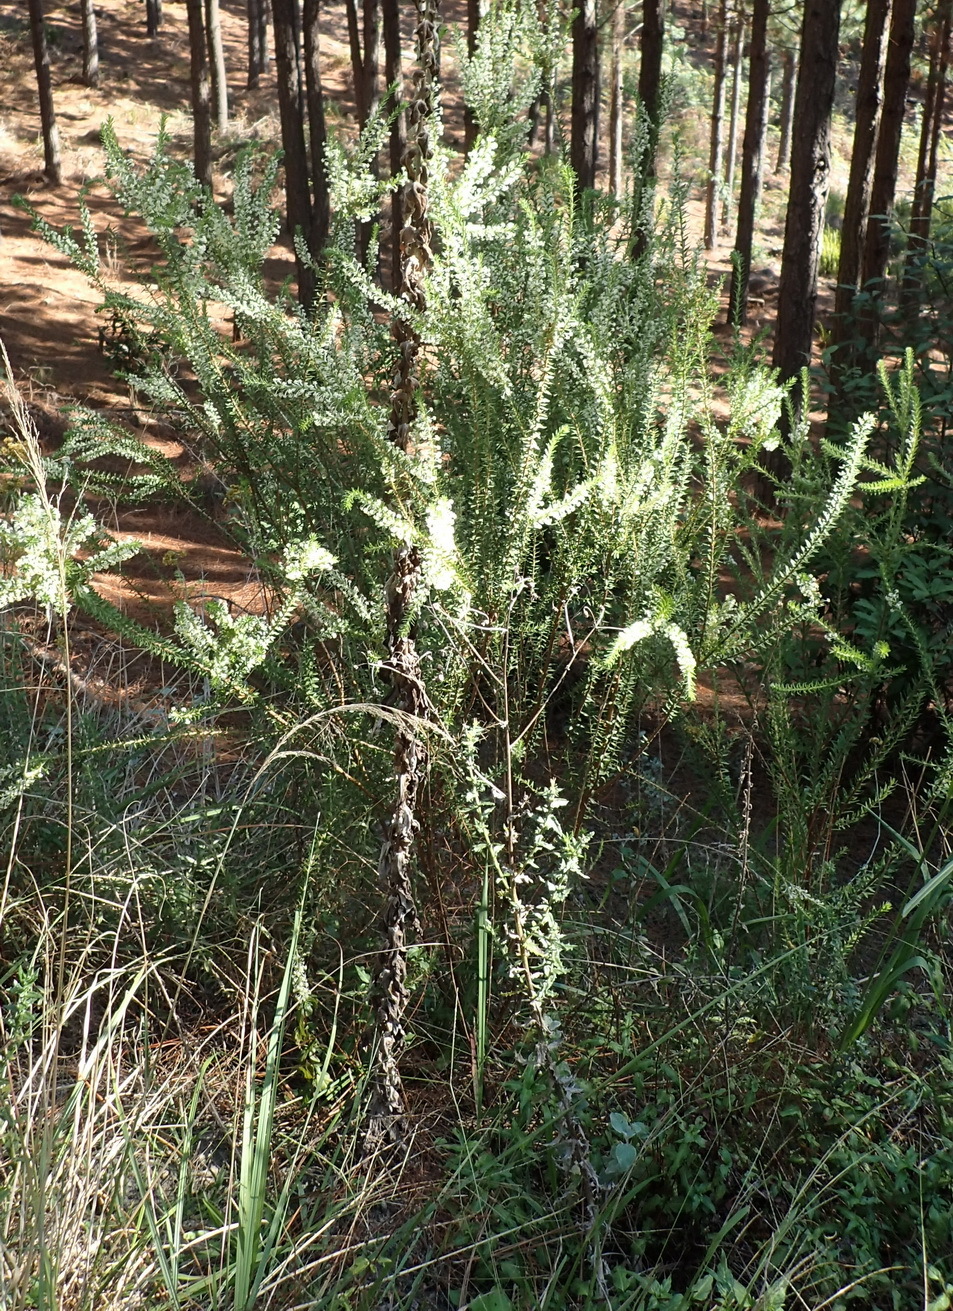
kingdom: Plantae
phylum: Tracheophyta
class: Magnoliopsida
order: Malvales
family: Thymelaeaceae
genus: Struthiola
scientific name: Struthiola hirsuta
